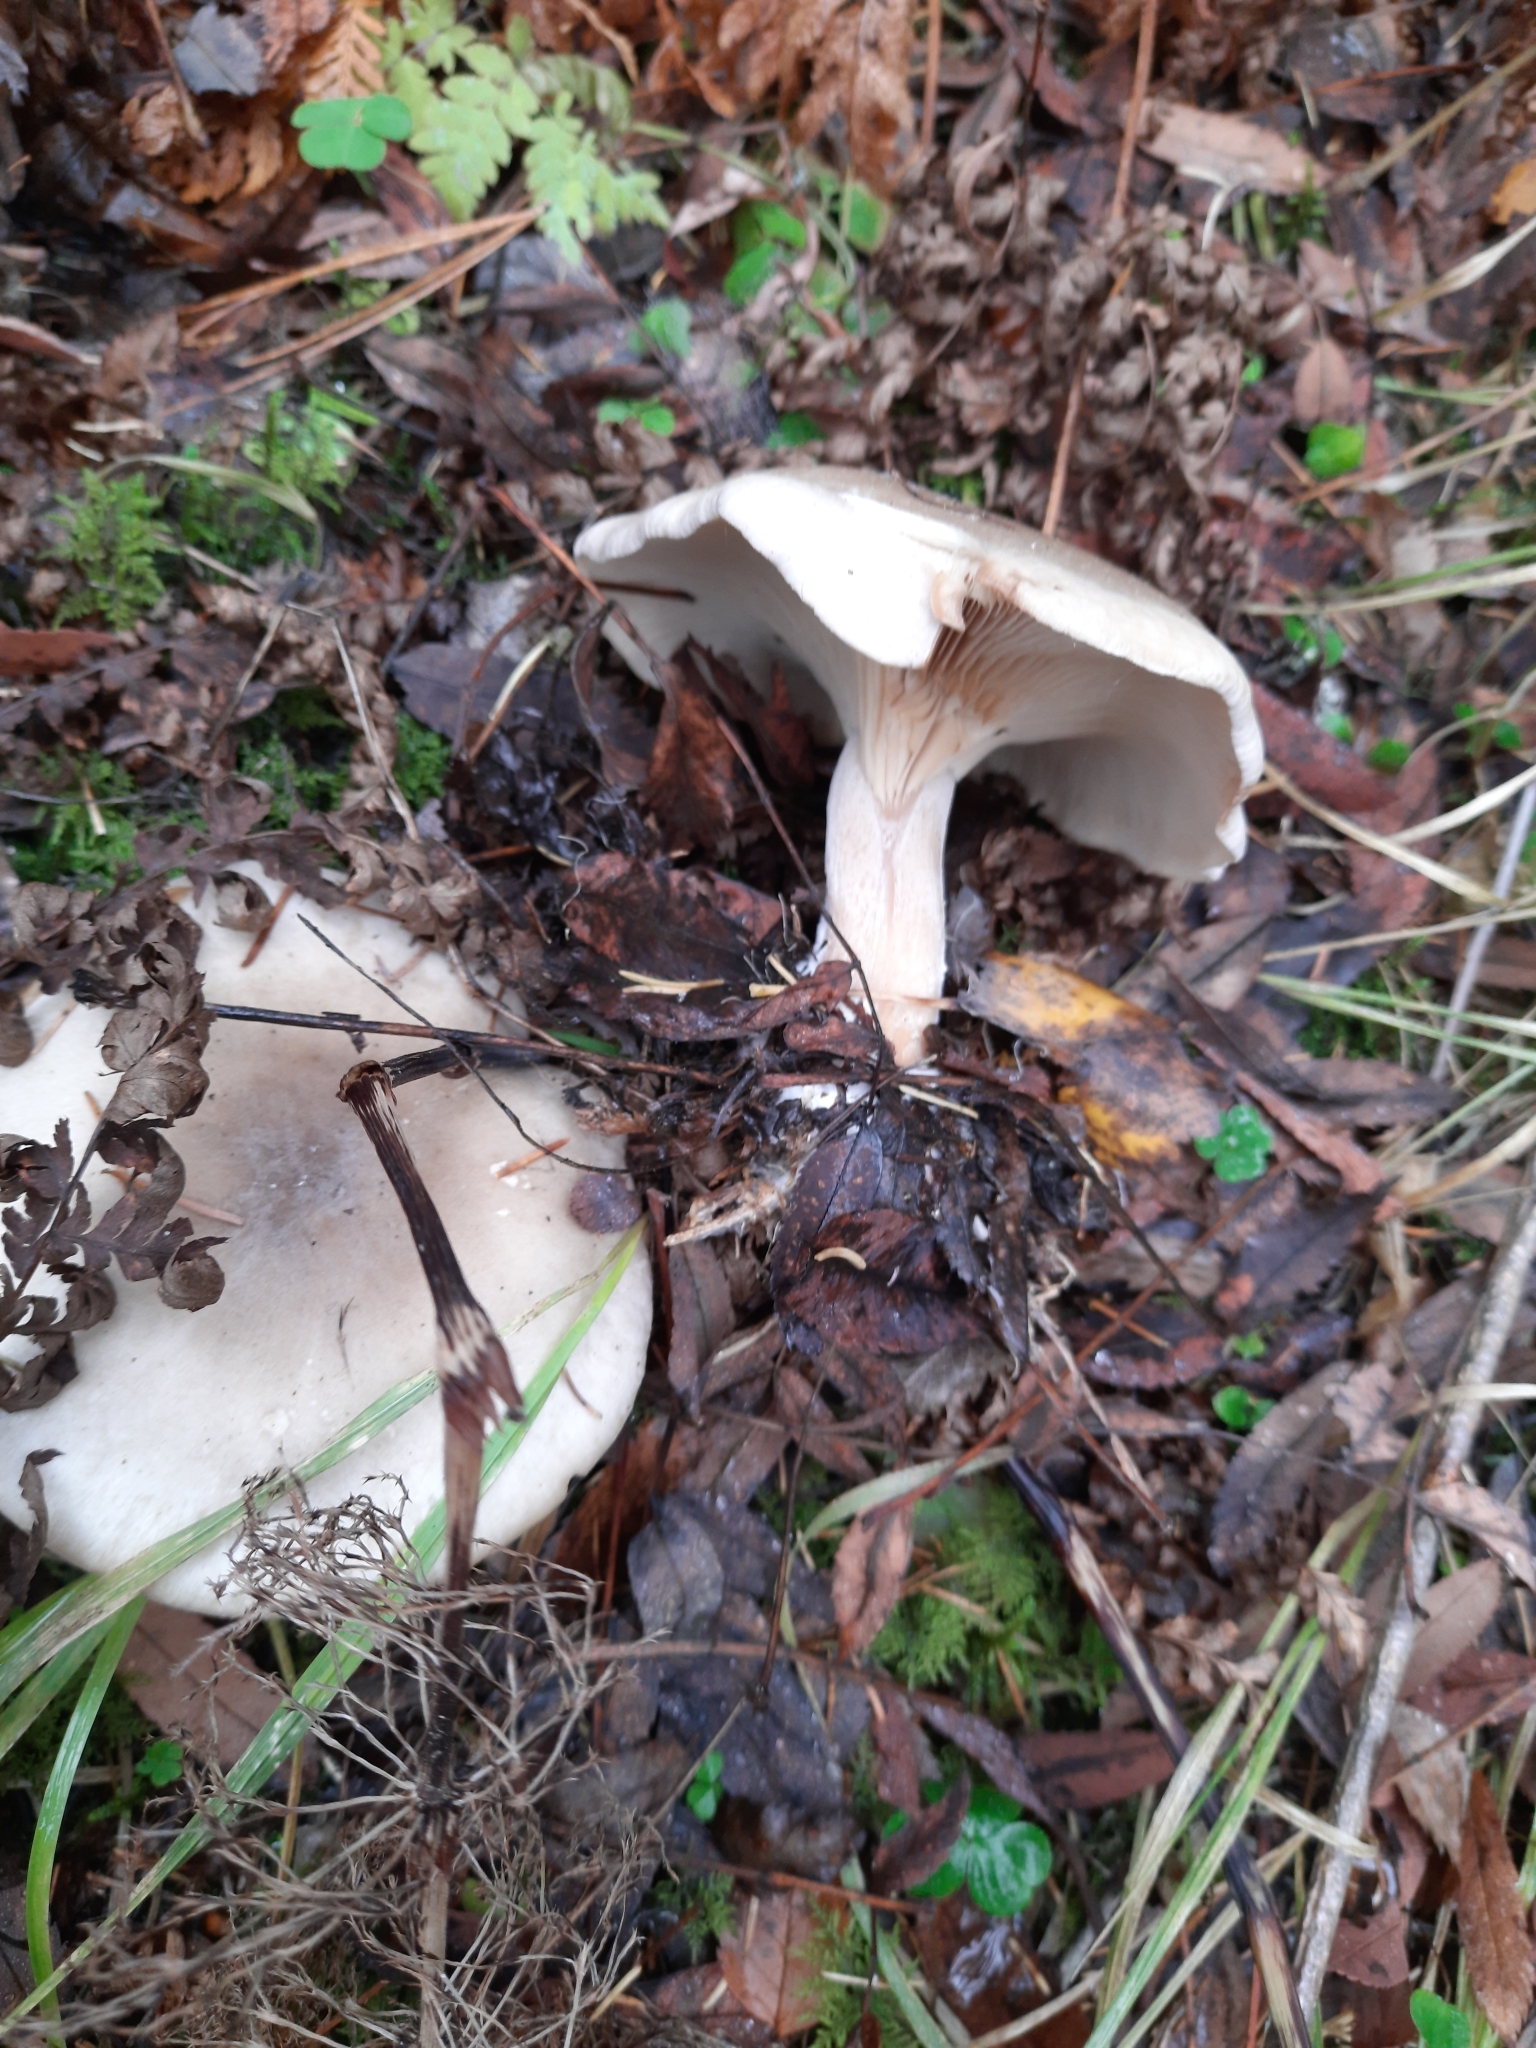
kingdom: Fungi
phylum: Basidiomycota
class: Agaricomycetes
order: Agaricales
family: Tricholomataceae
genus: Clitocybe
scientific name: Clitocybe nebularis
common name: Clouded agaric
